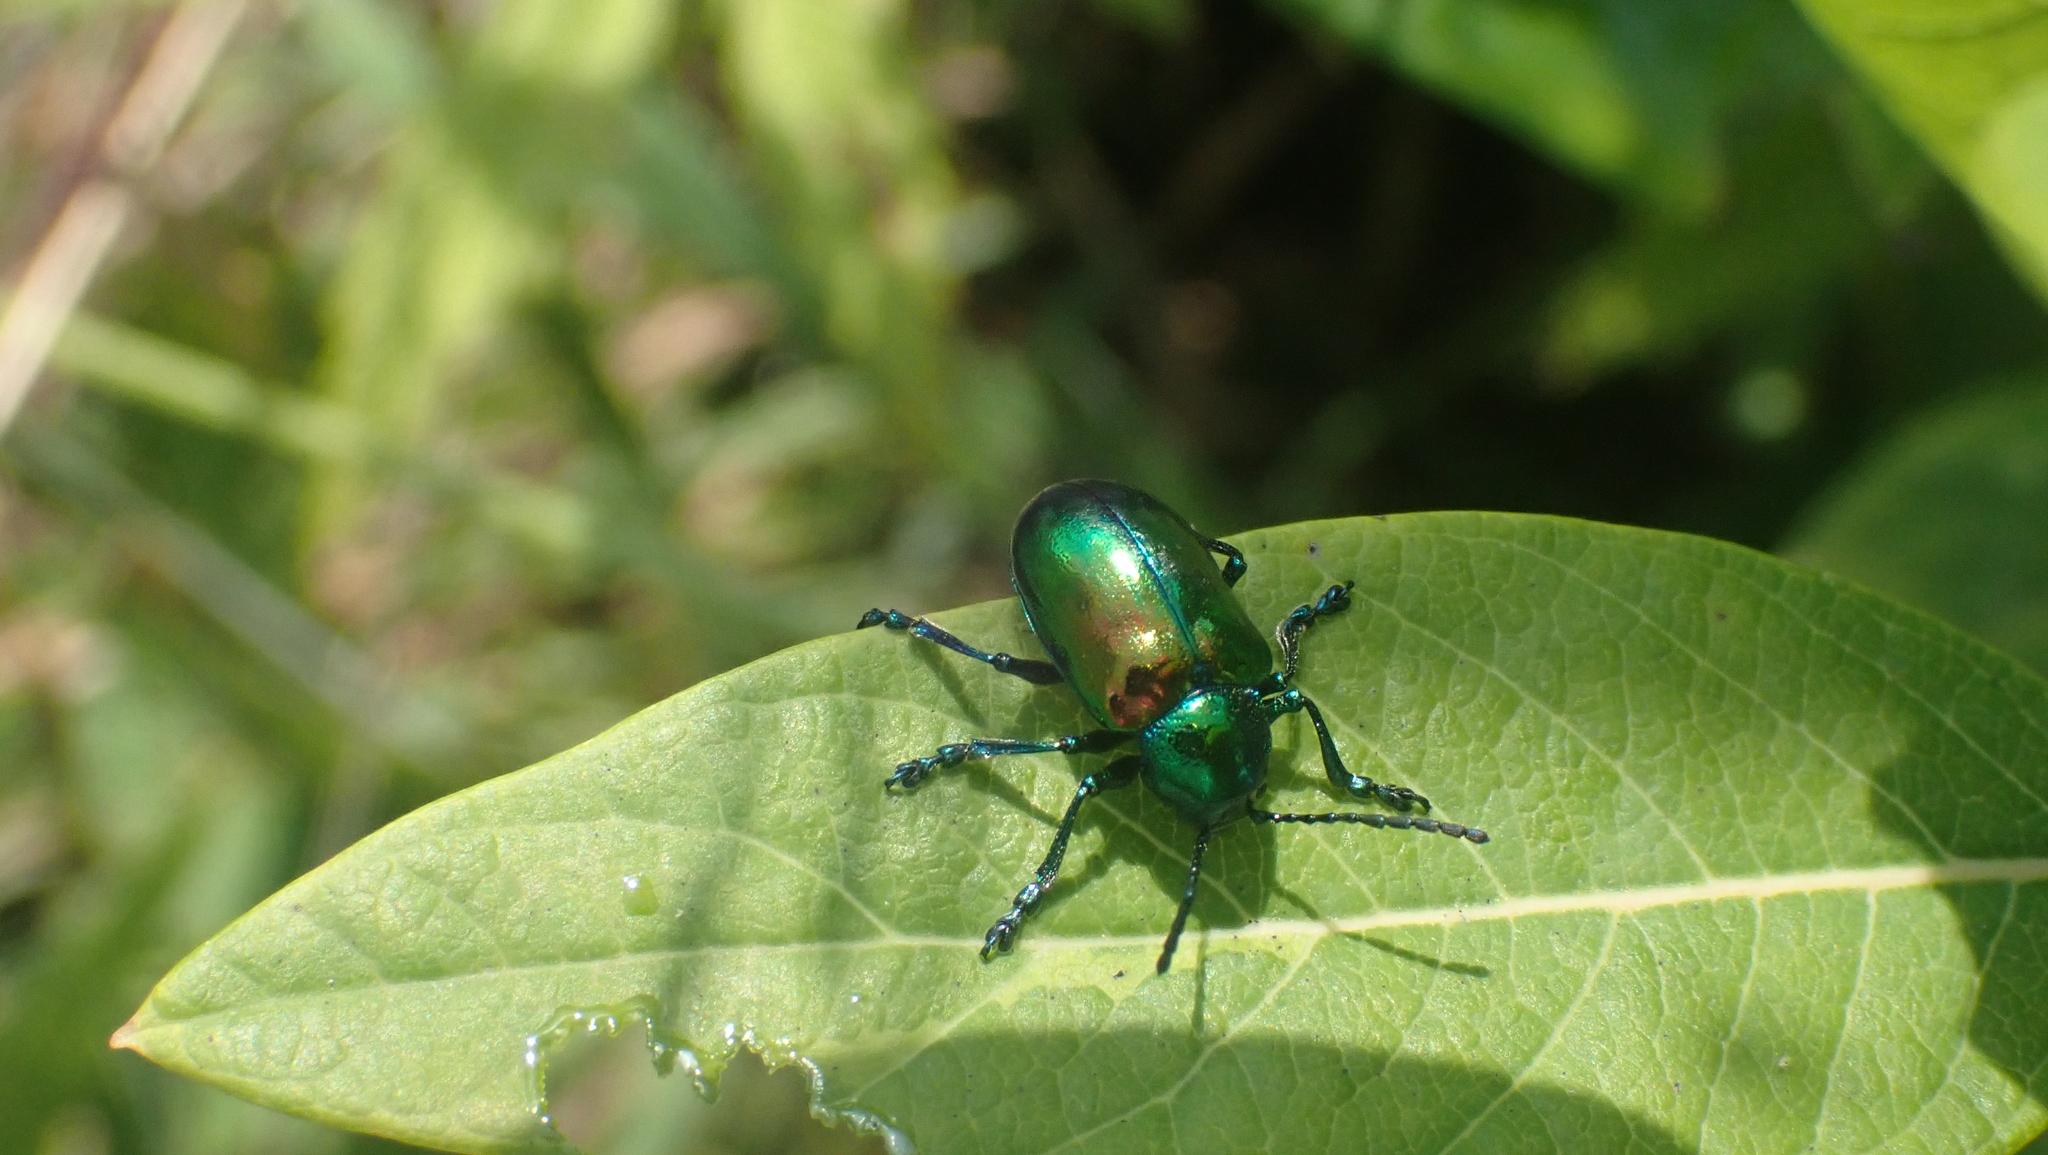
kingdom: Animalia
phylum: Arthropoda
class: Insecta
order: Coleoptera
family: Chrysomelidae
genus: Chrysochus
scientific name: Chrysochus auratus
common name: Dogbane leaf beetle
